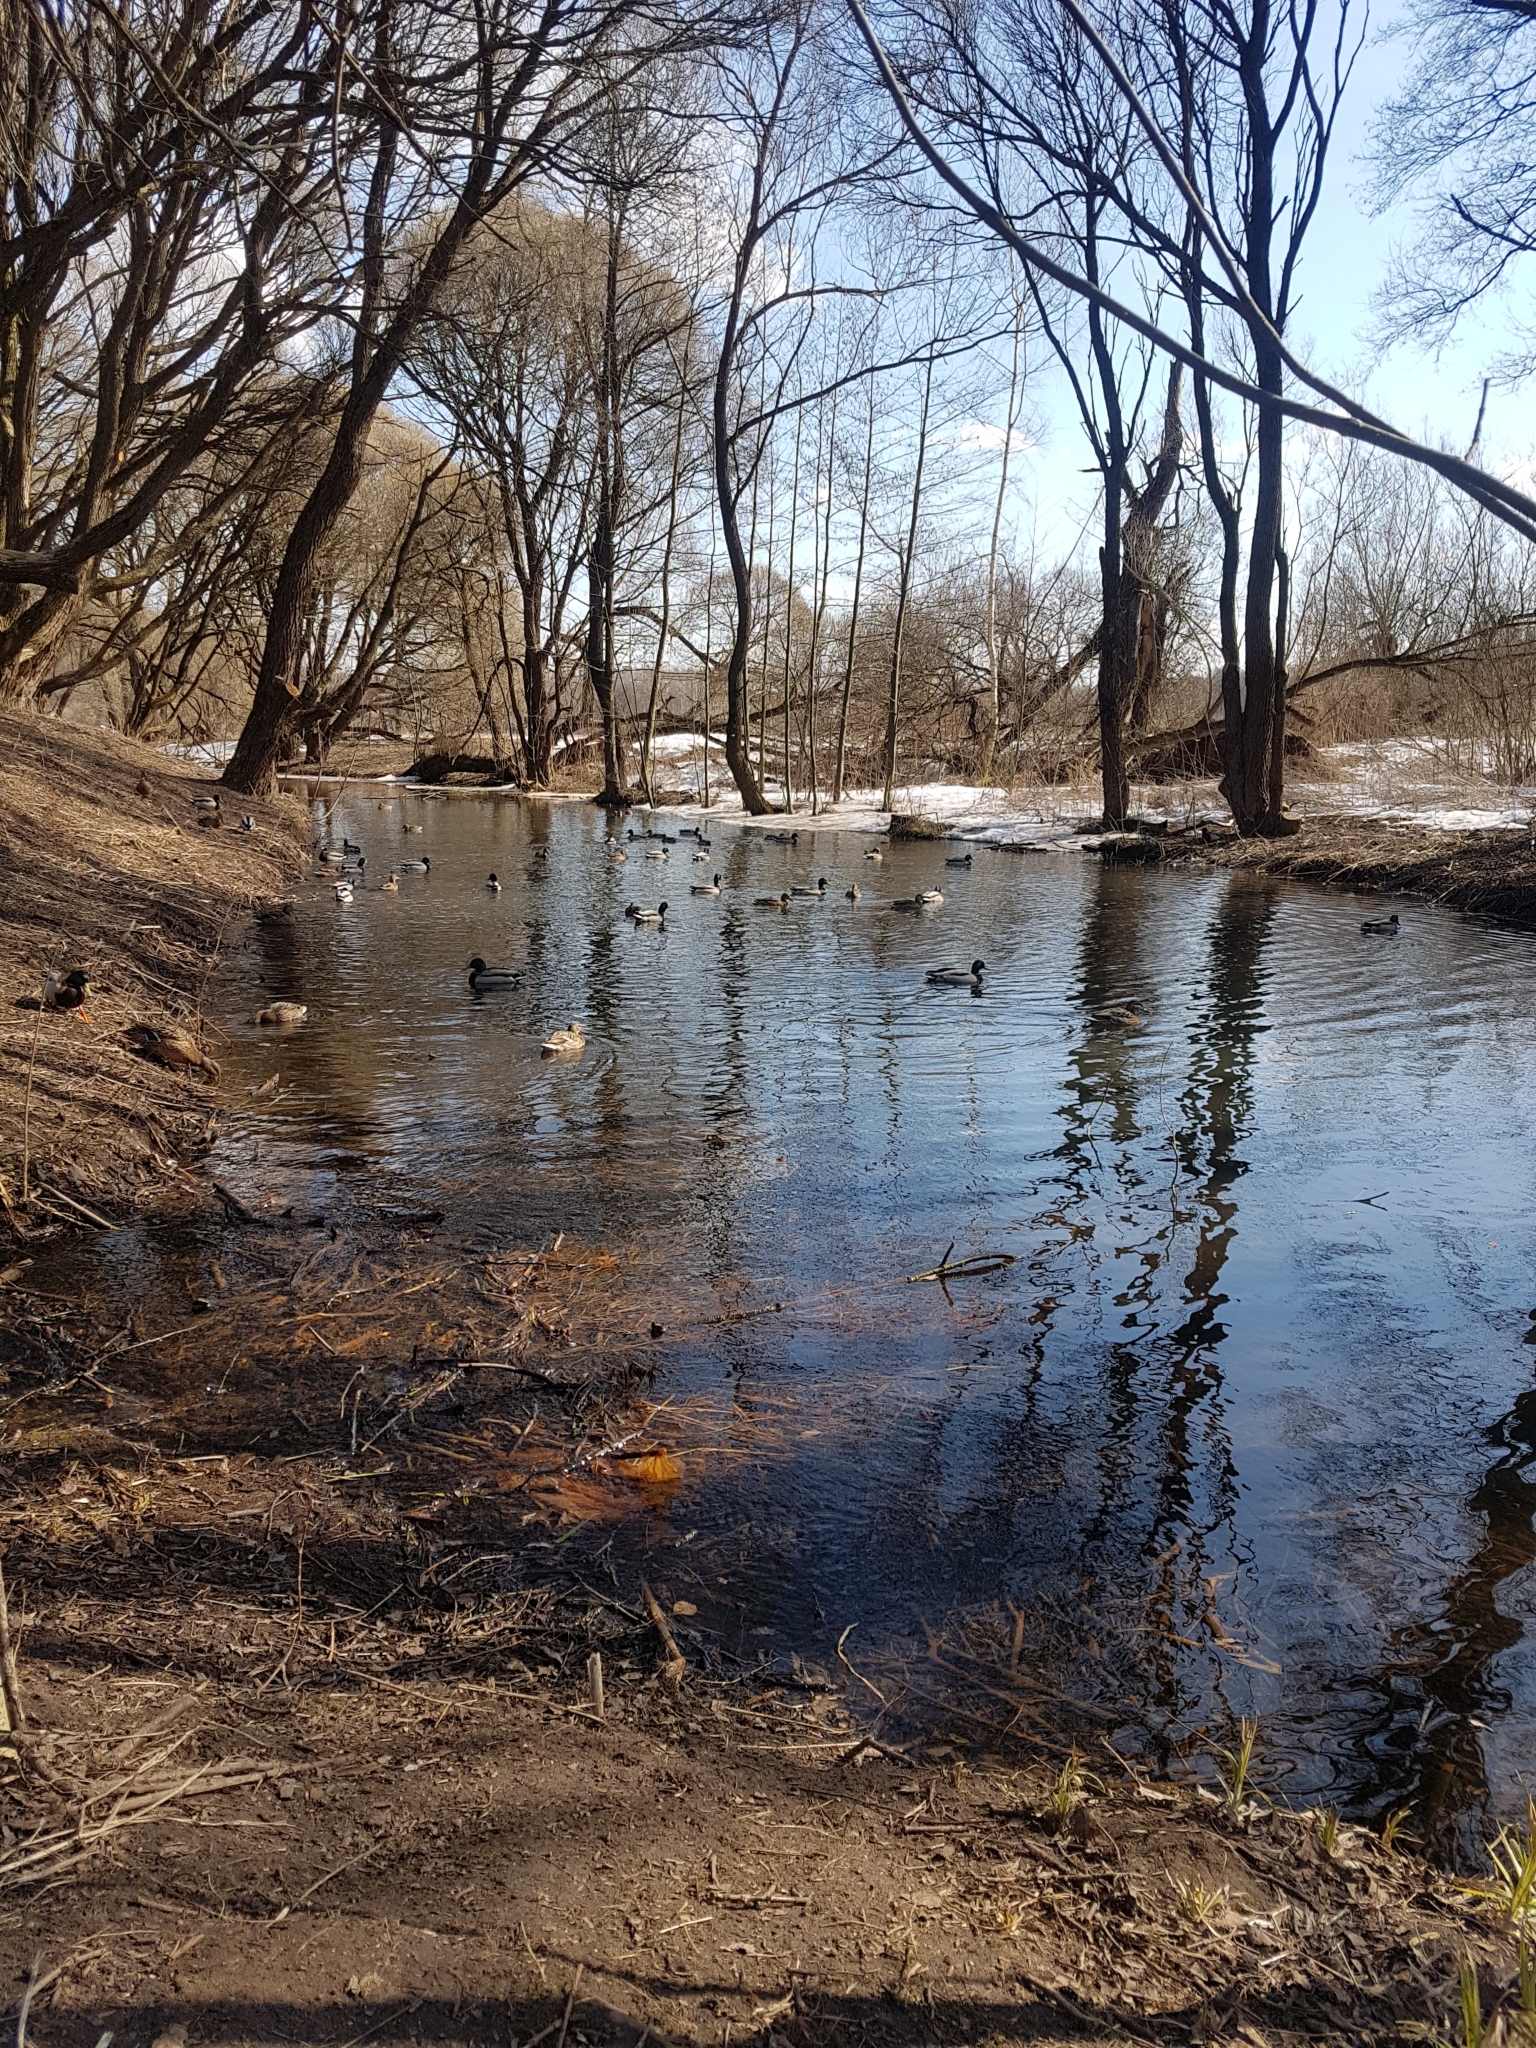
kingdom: Animalia
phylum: Chordata
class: Aves
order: Anseriformes
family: Anatidae
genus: Anas
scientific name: Anas platyrhynchos
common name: Mallard
